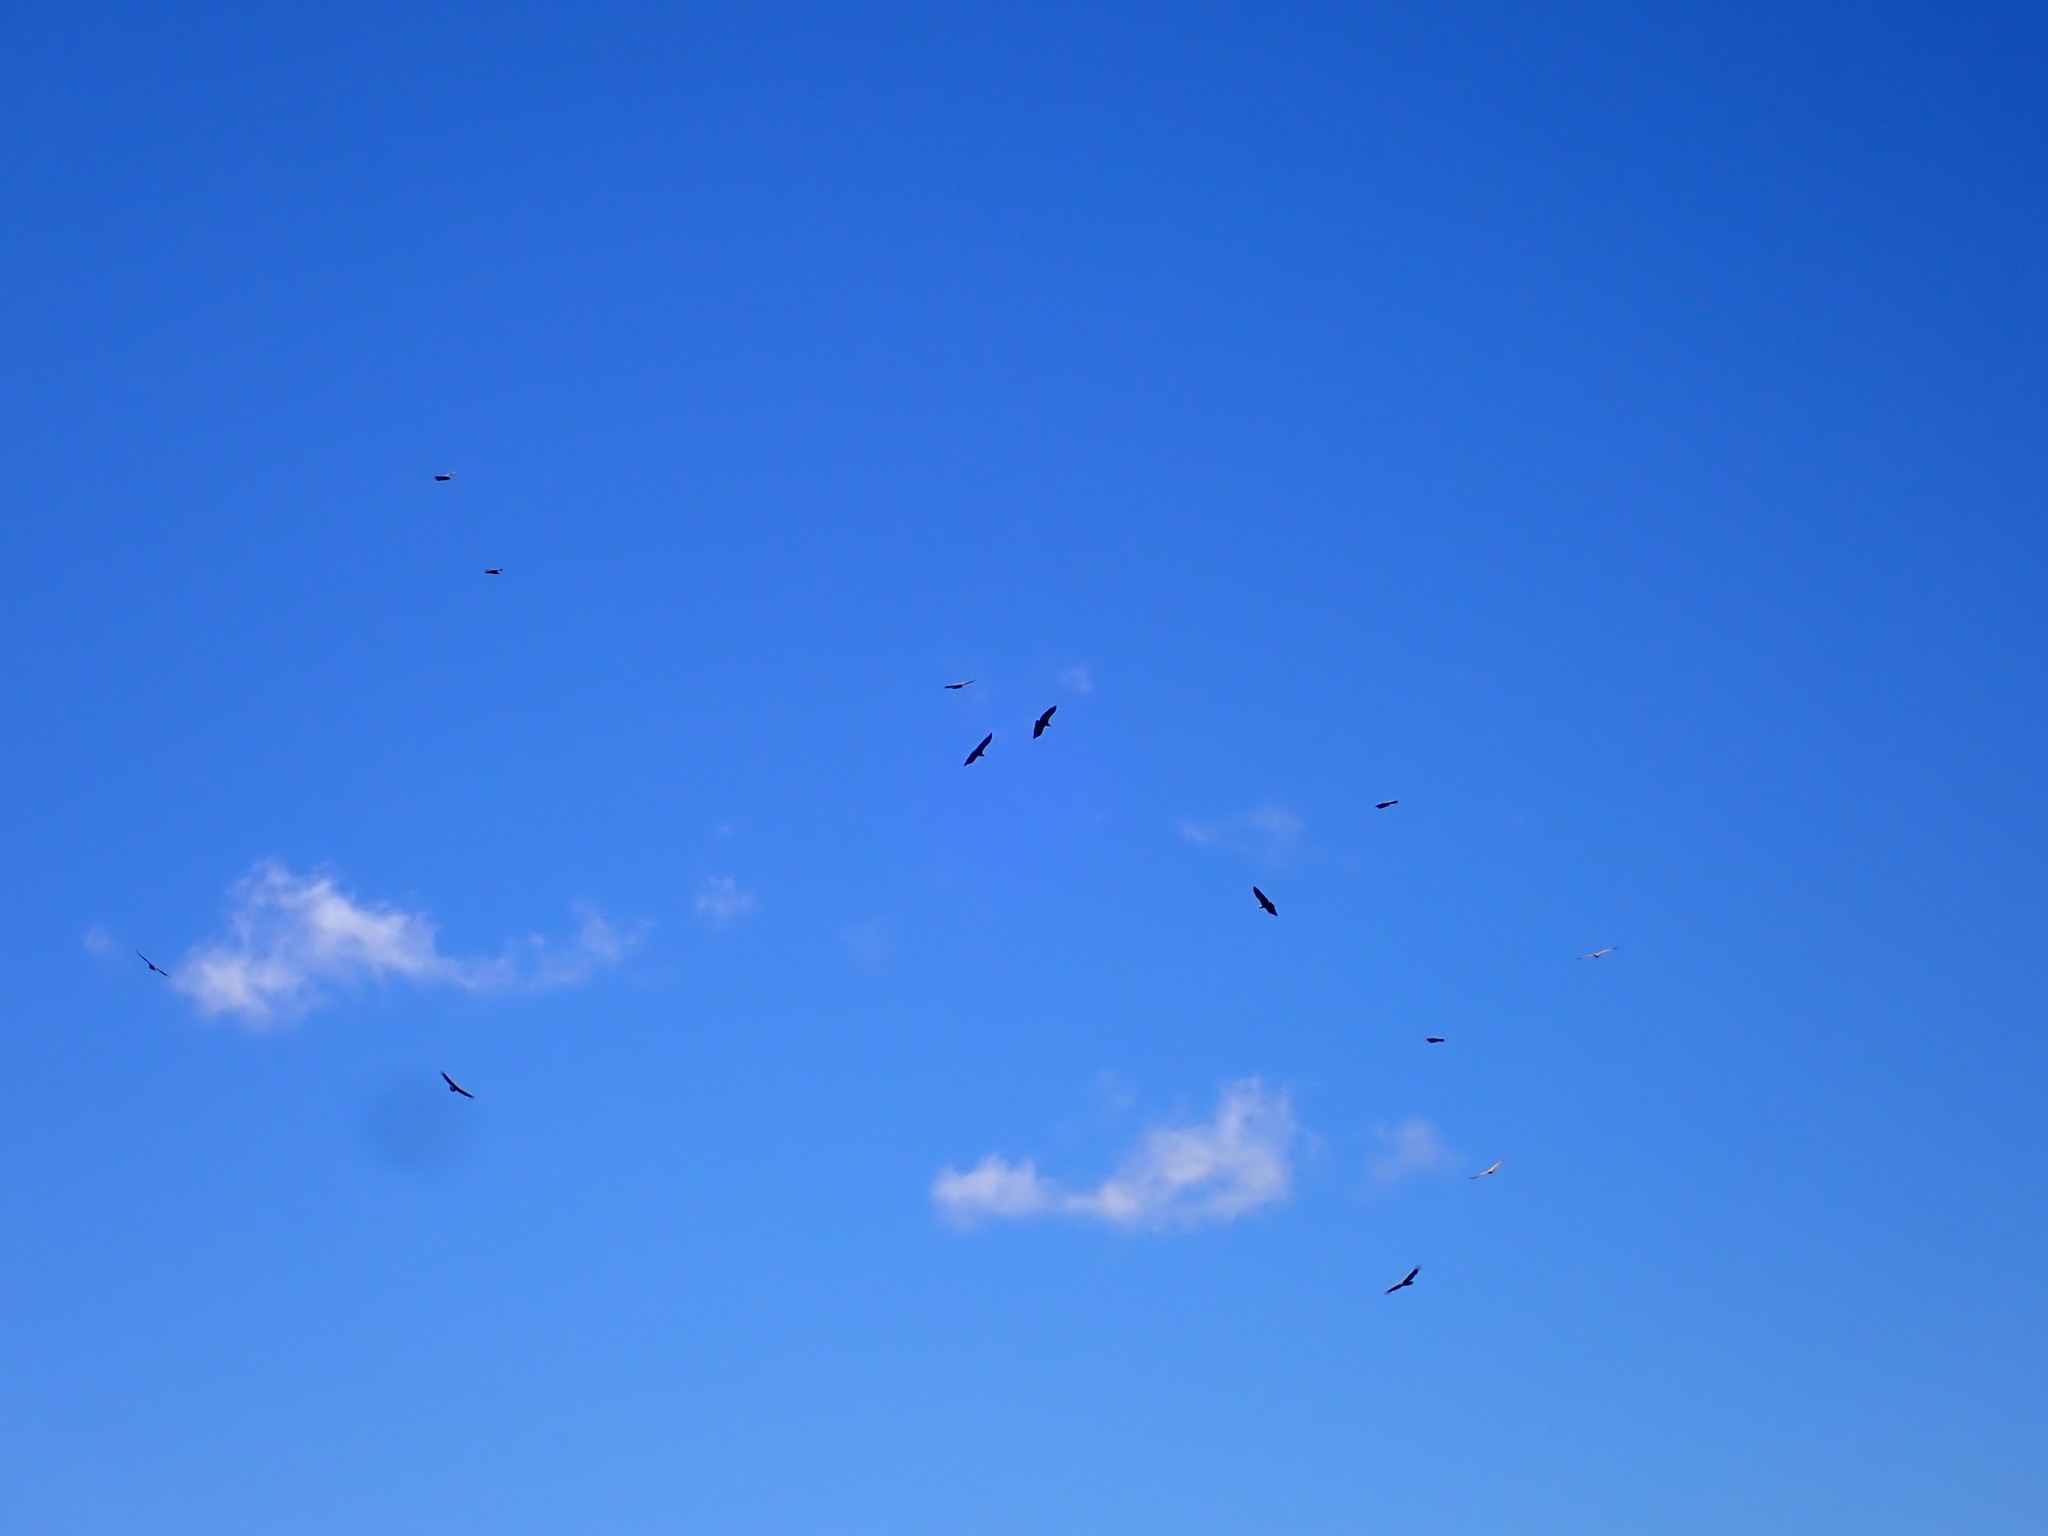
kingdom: Animalia
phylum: Chordata
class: Aves
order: Accipitriformes
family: Accipitridae
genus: Gyps
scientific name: Gyps fulvus
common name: Griffon vulture
